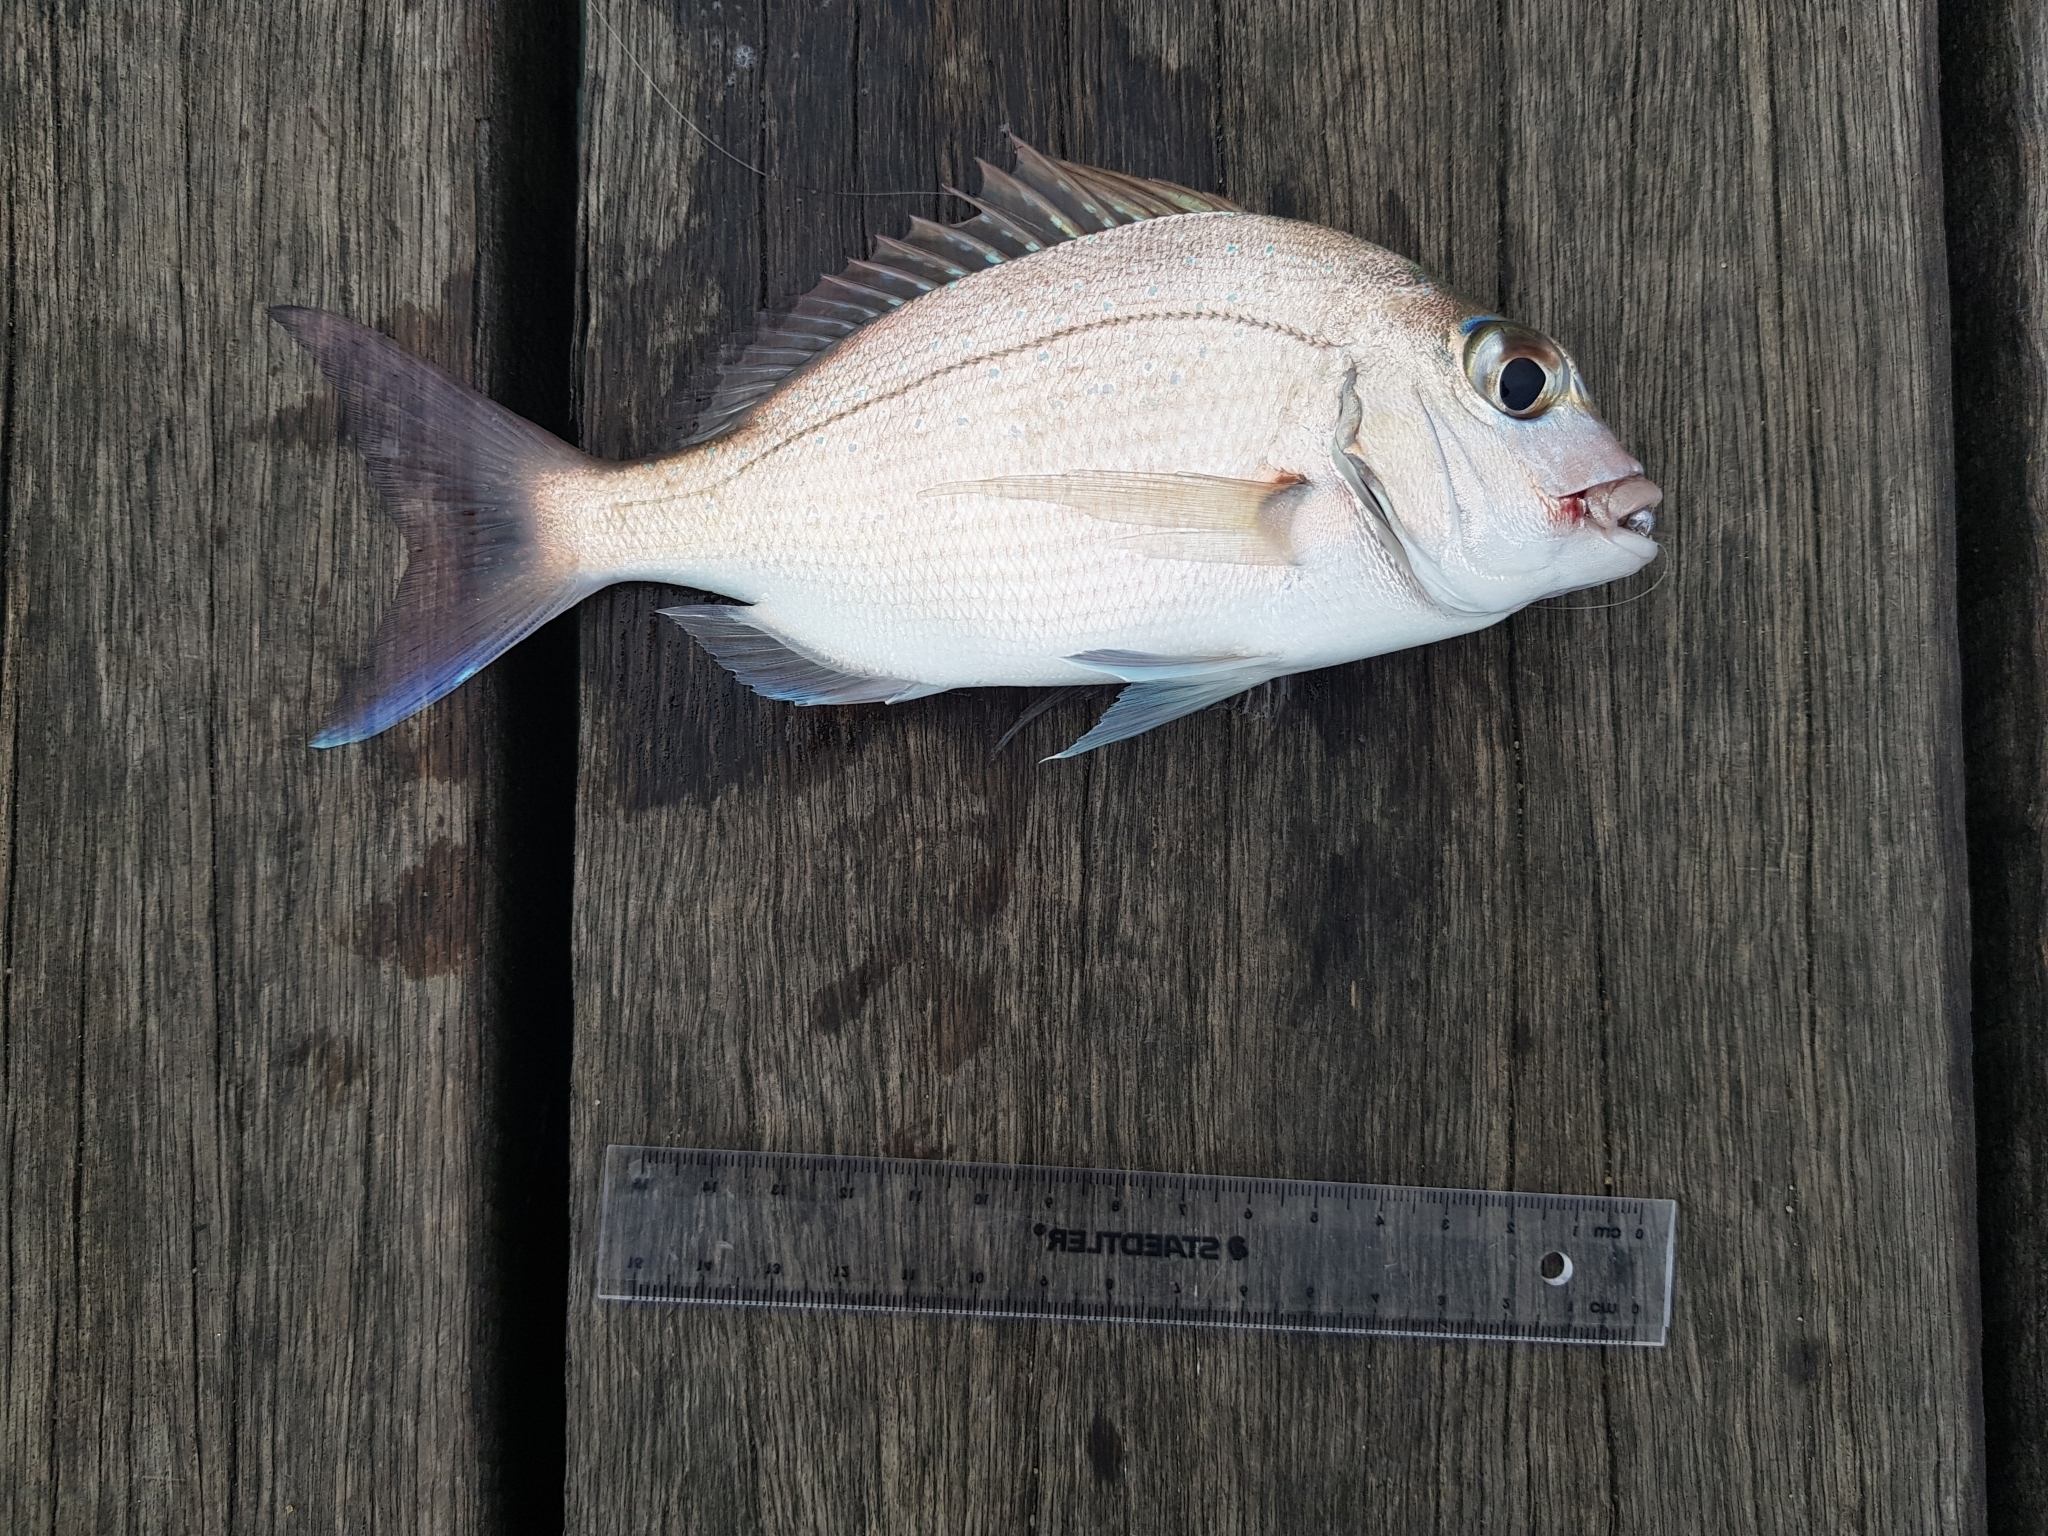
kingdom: Animalia
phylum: Chordata
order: Perciformes
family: Sparidae
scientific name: Sparidae
